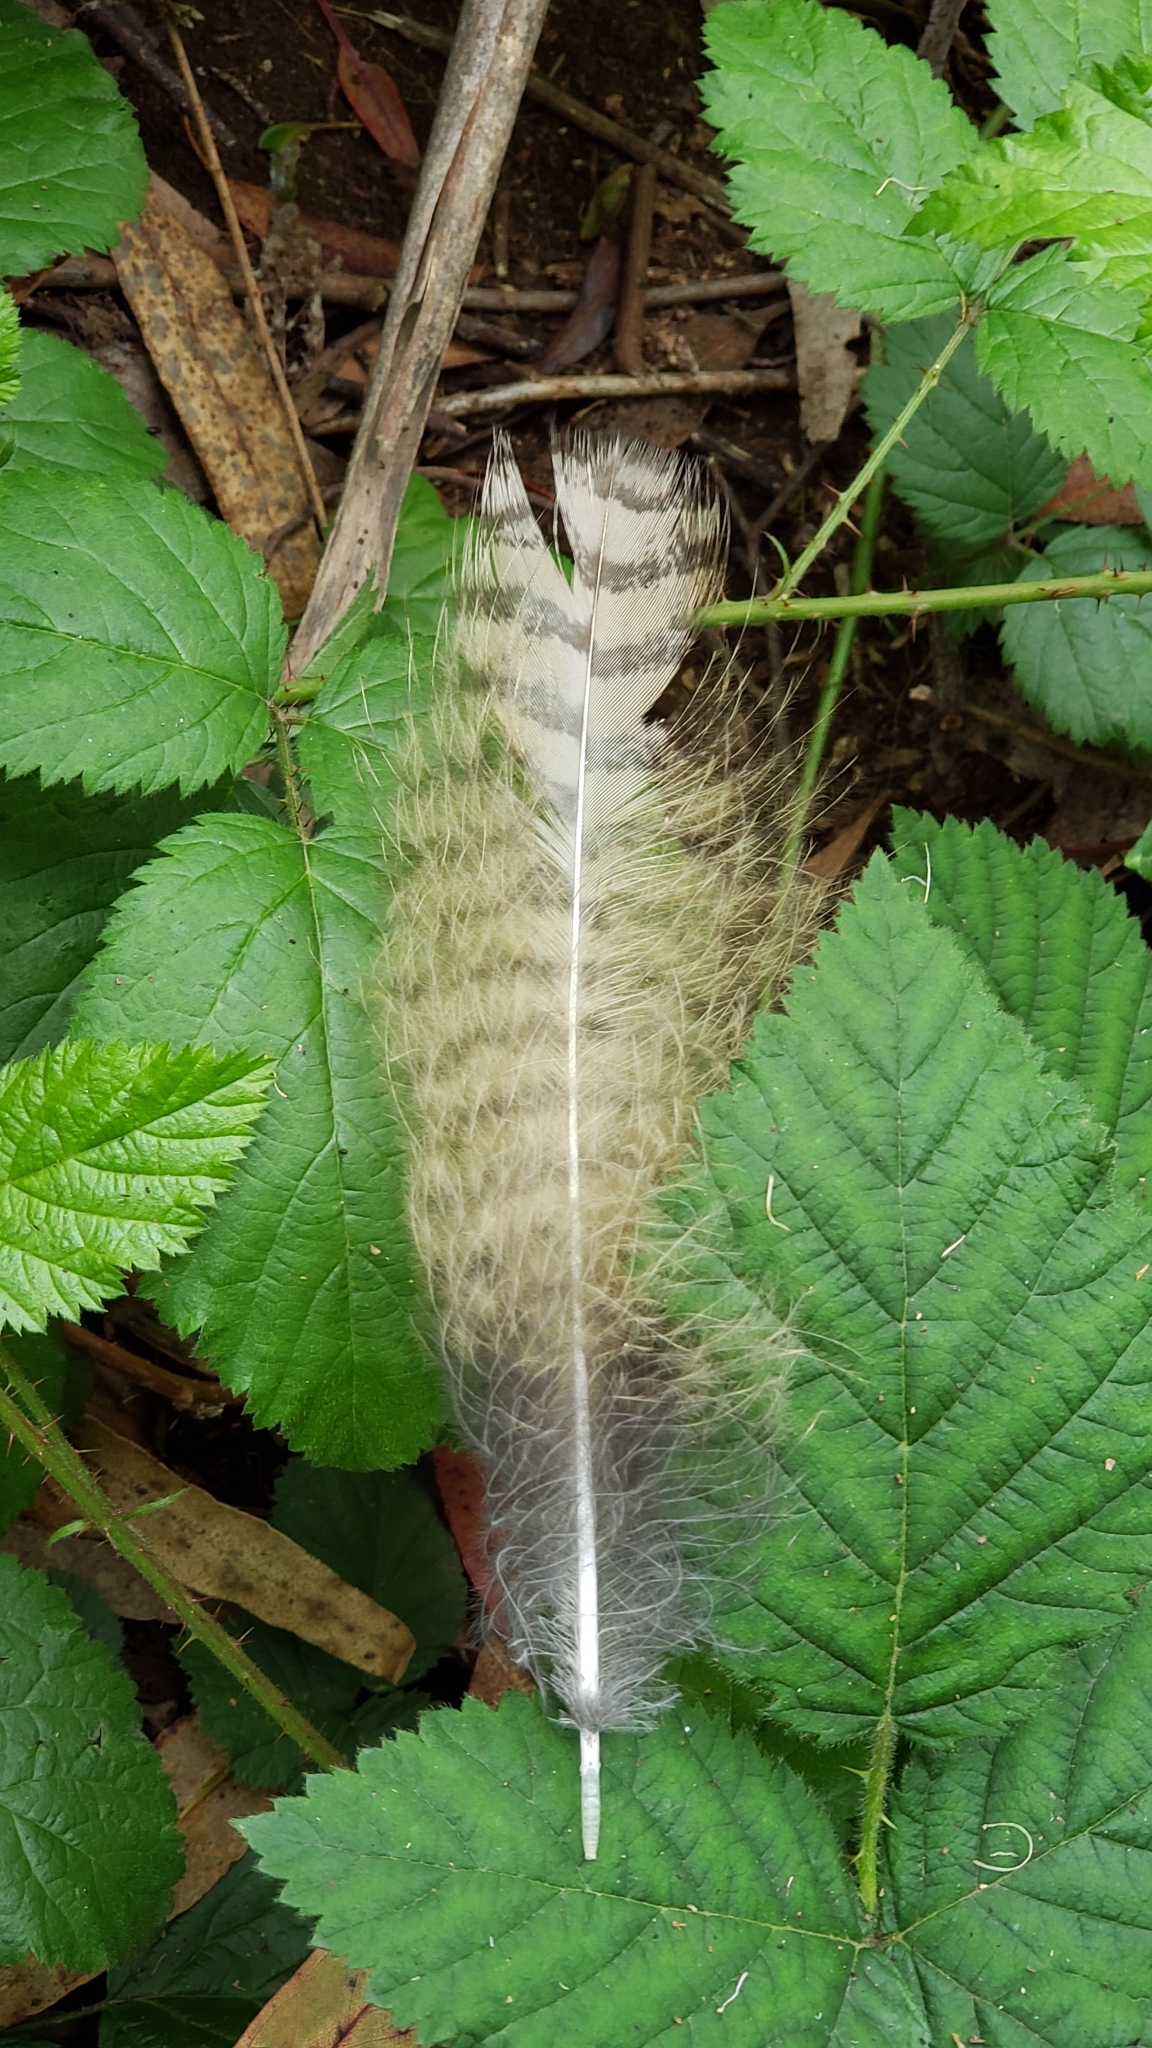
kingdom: Animalia
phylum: Chordata
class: Aves
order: Strigiformes
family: Strigidae
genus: Bubo
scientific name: Bubo virginianus
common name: Great horned owl
